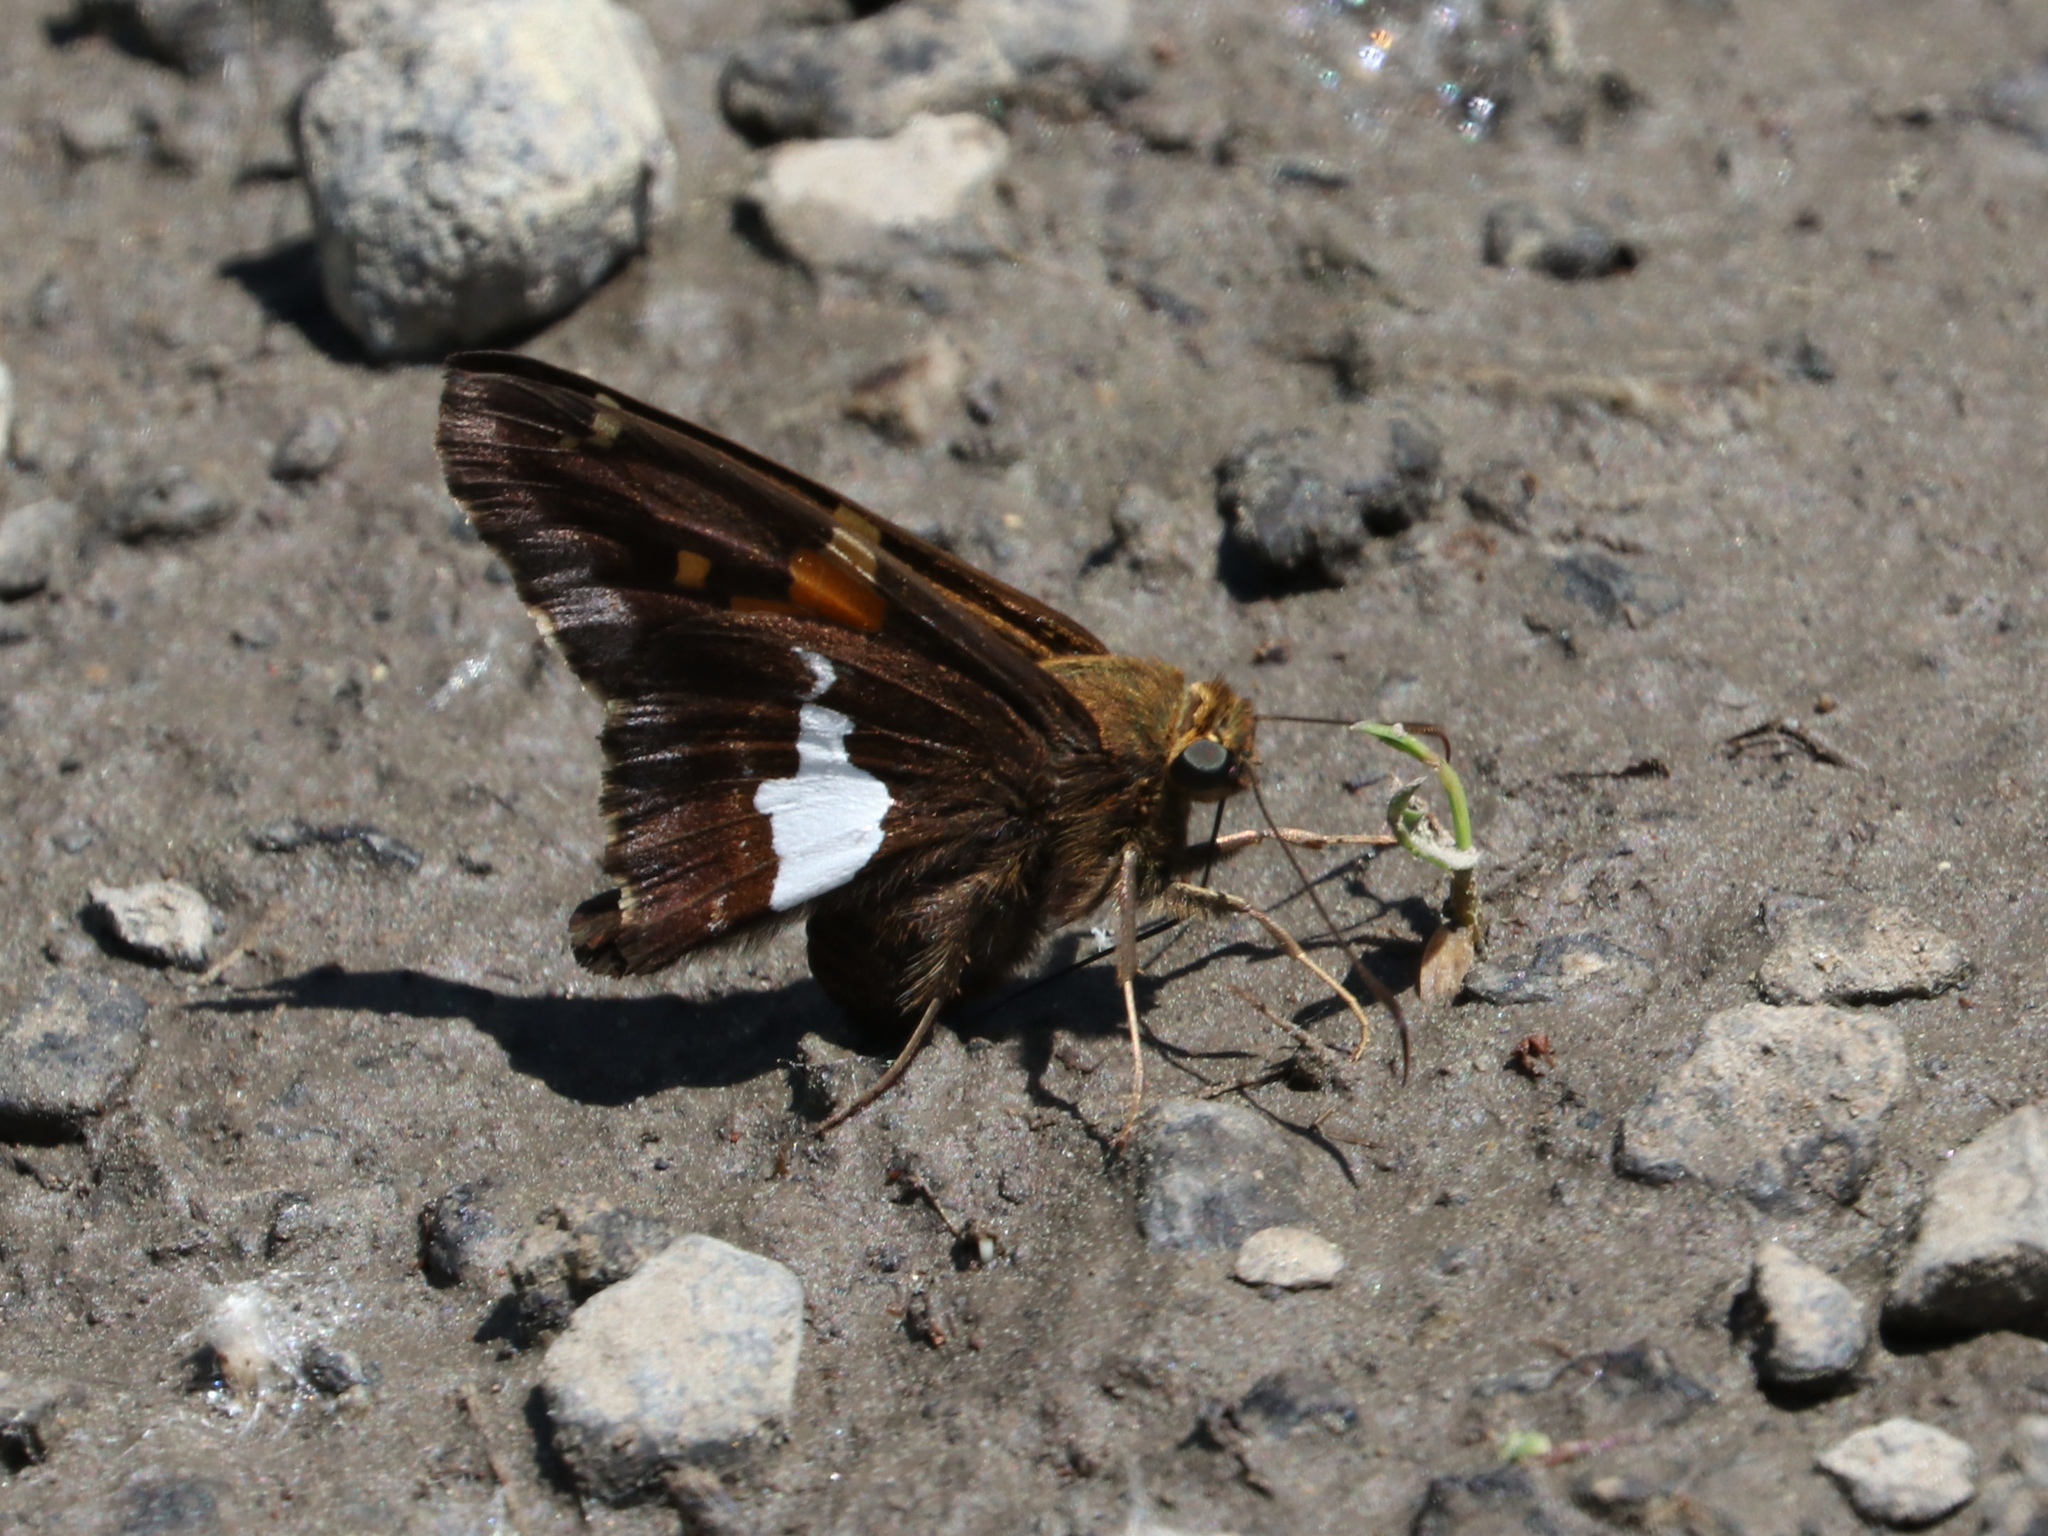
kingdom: Animalia
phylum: Arthropoda
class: Insecta
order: Lepidoptera
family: Hesperiidae
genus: Epargyreus
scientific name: Epargyreus clarus
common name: Silver-spotted skipper
